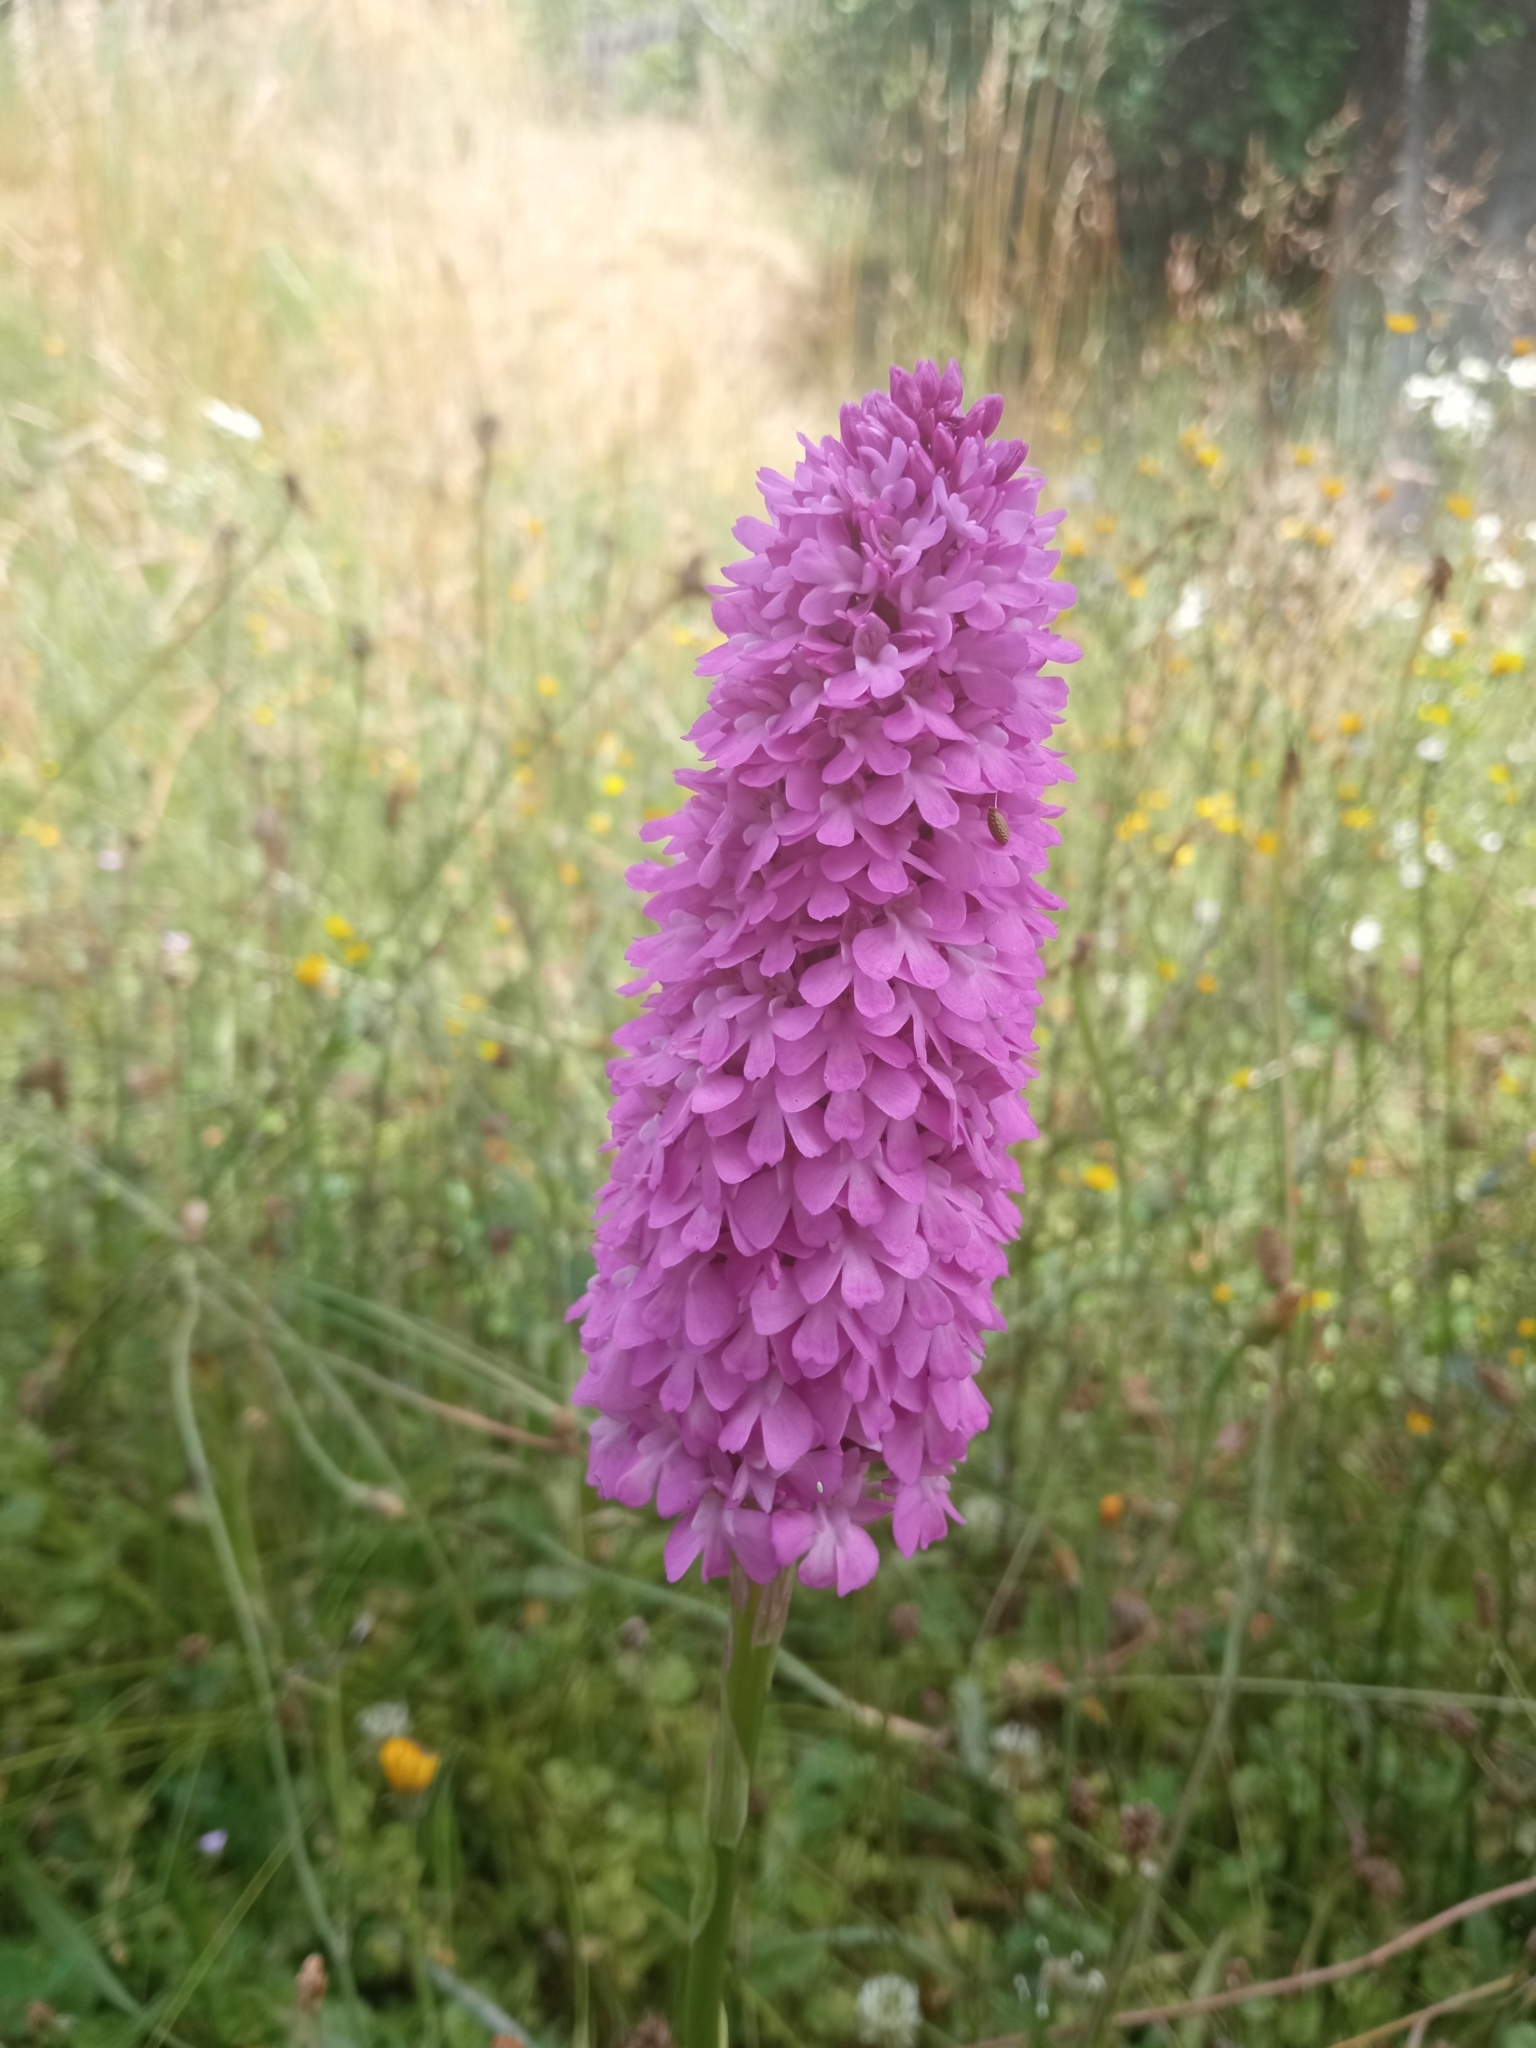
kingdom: Plantae
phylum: Tracheophyta
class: Liliopsida
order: Asparagales
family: Orchidaceae
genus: Anacamptis
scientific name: Anacamptis pyramidalis
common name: Pyramidal orchid
